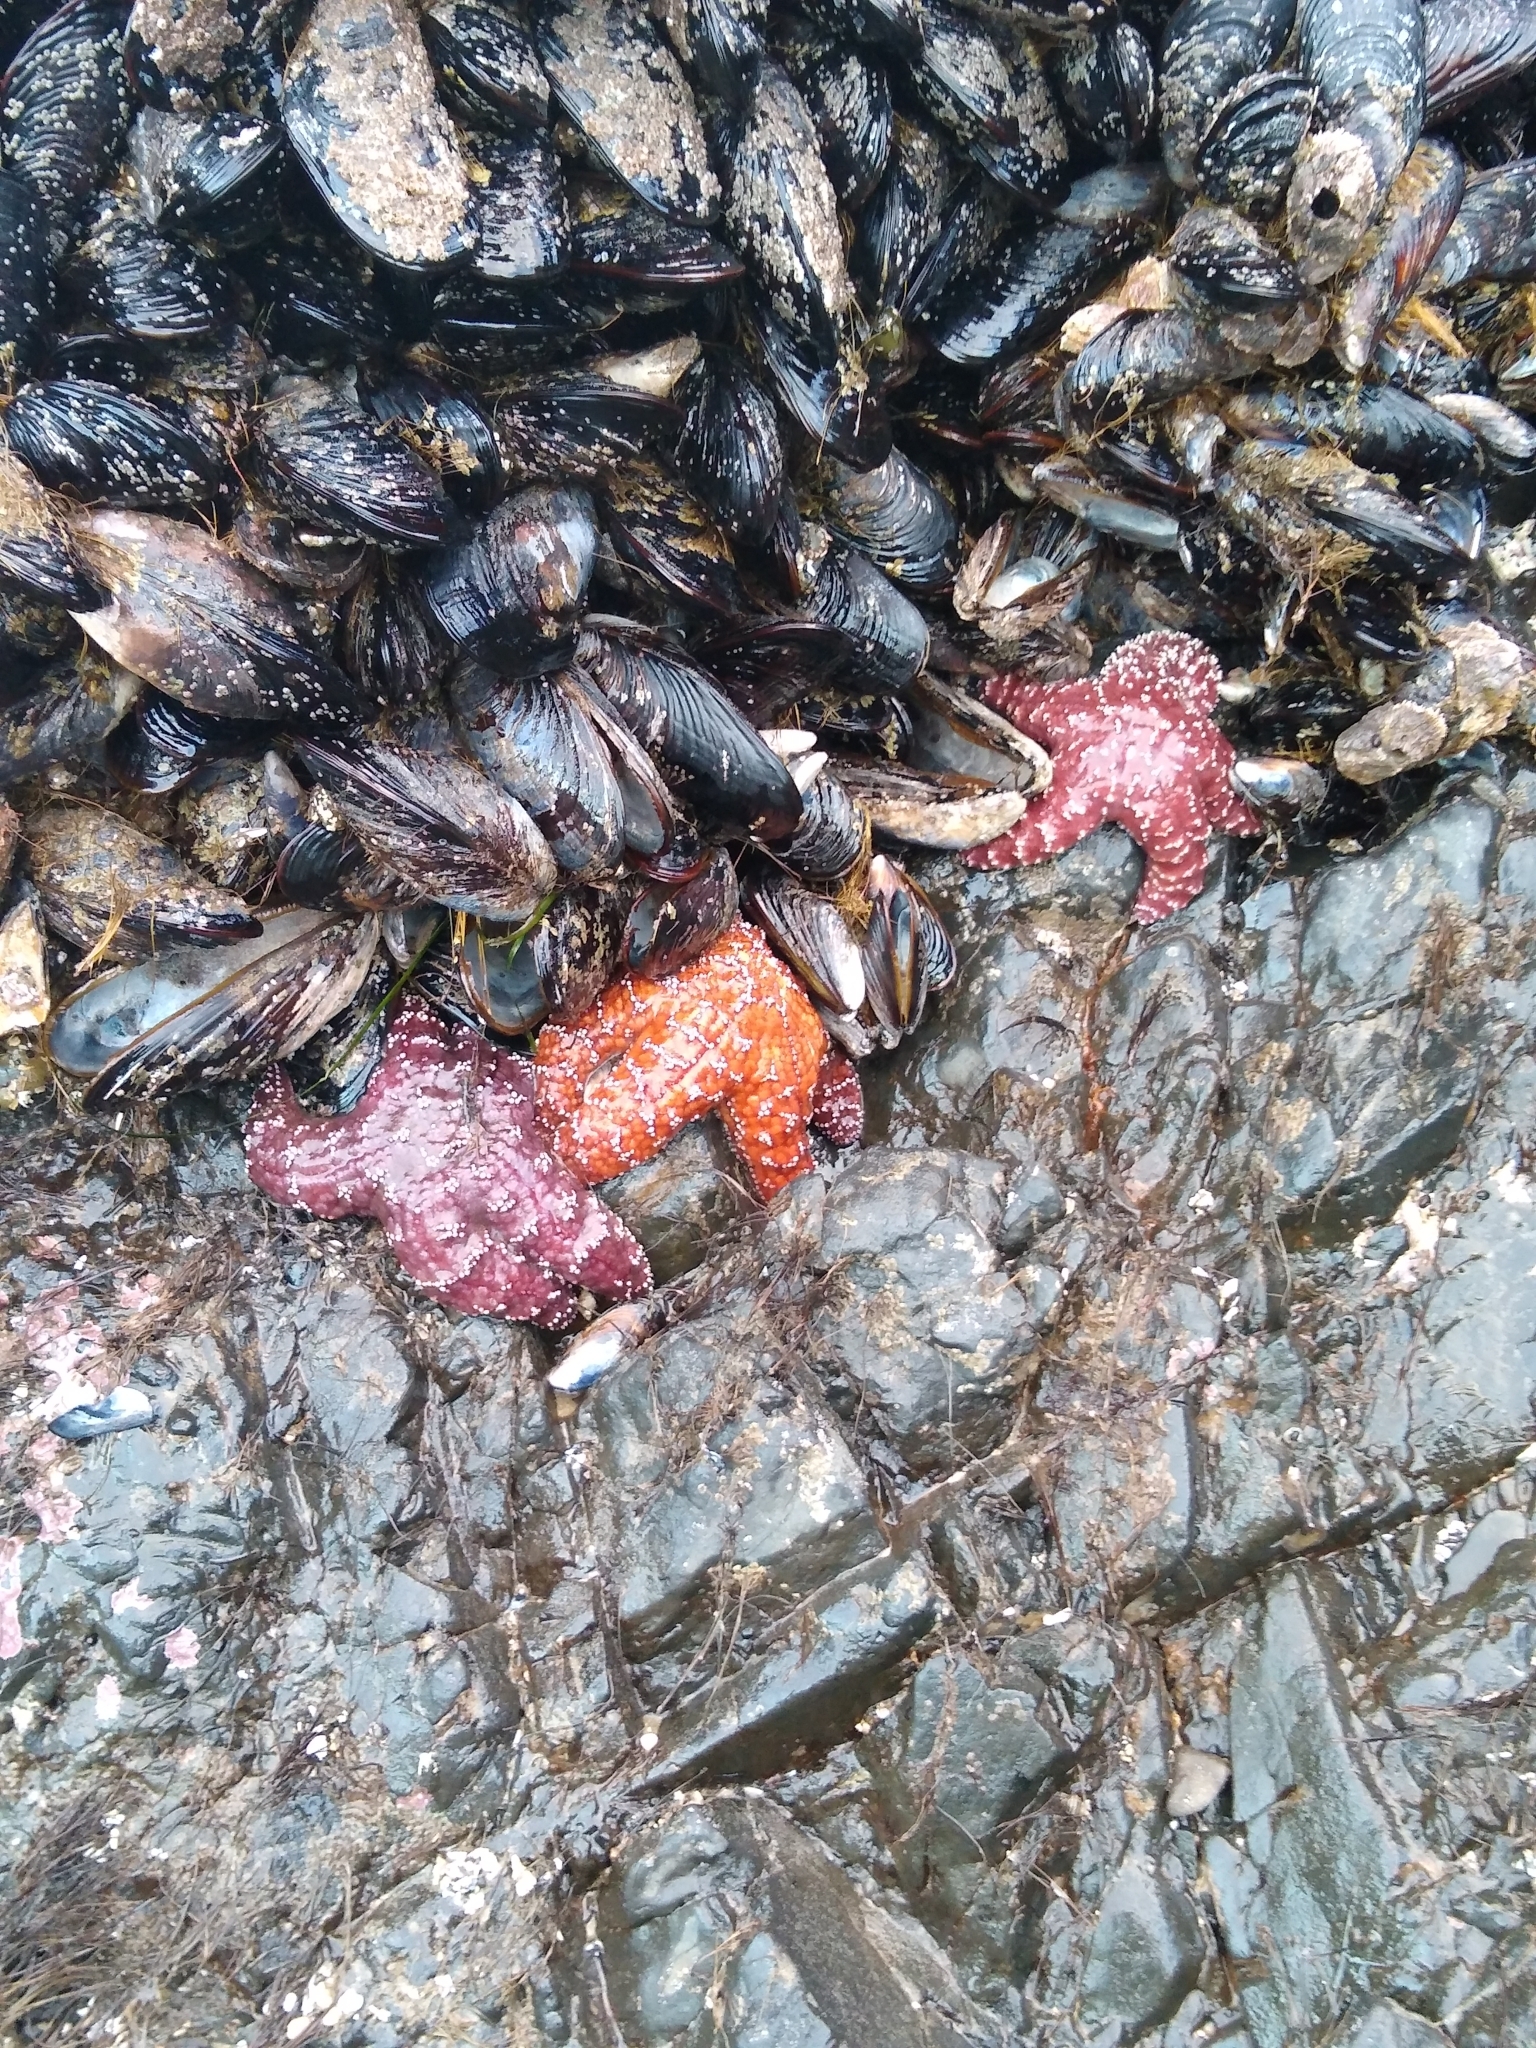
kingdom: Animalia
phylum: Echinodermata
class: Asteroidea
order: Forcipulatida
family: Asteriidae
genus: Pisaster
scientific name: Pisaster ochraceus
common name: Ochre stars
